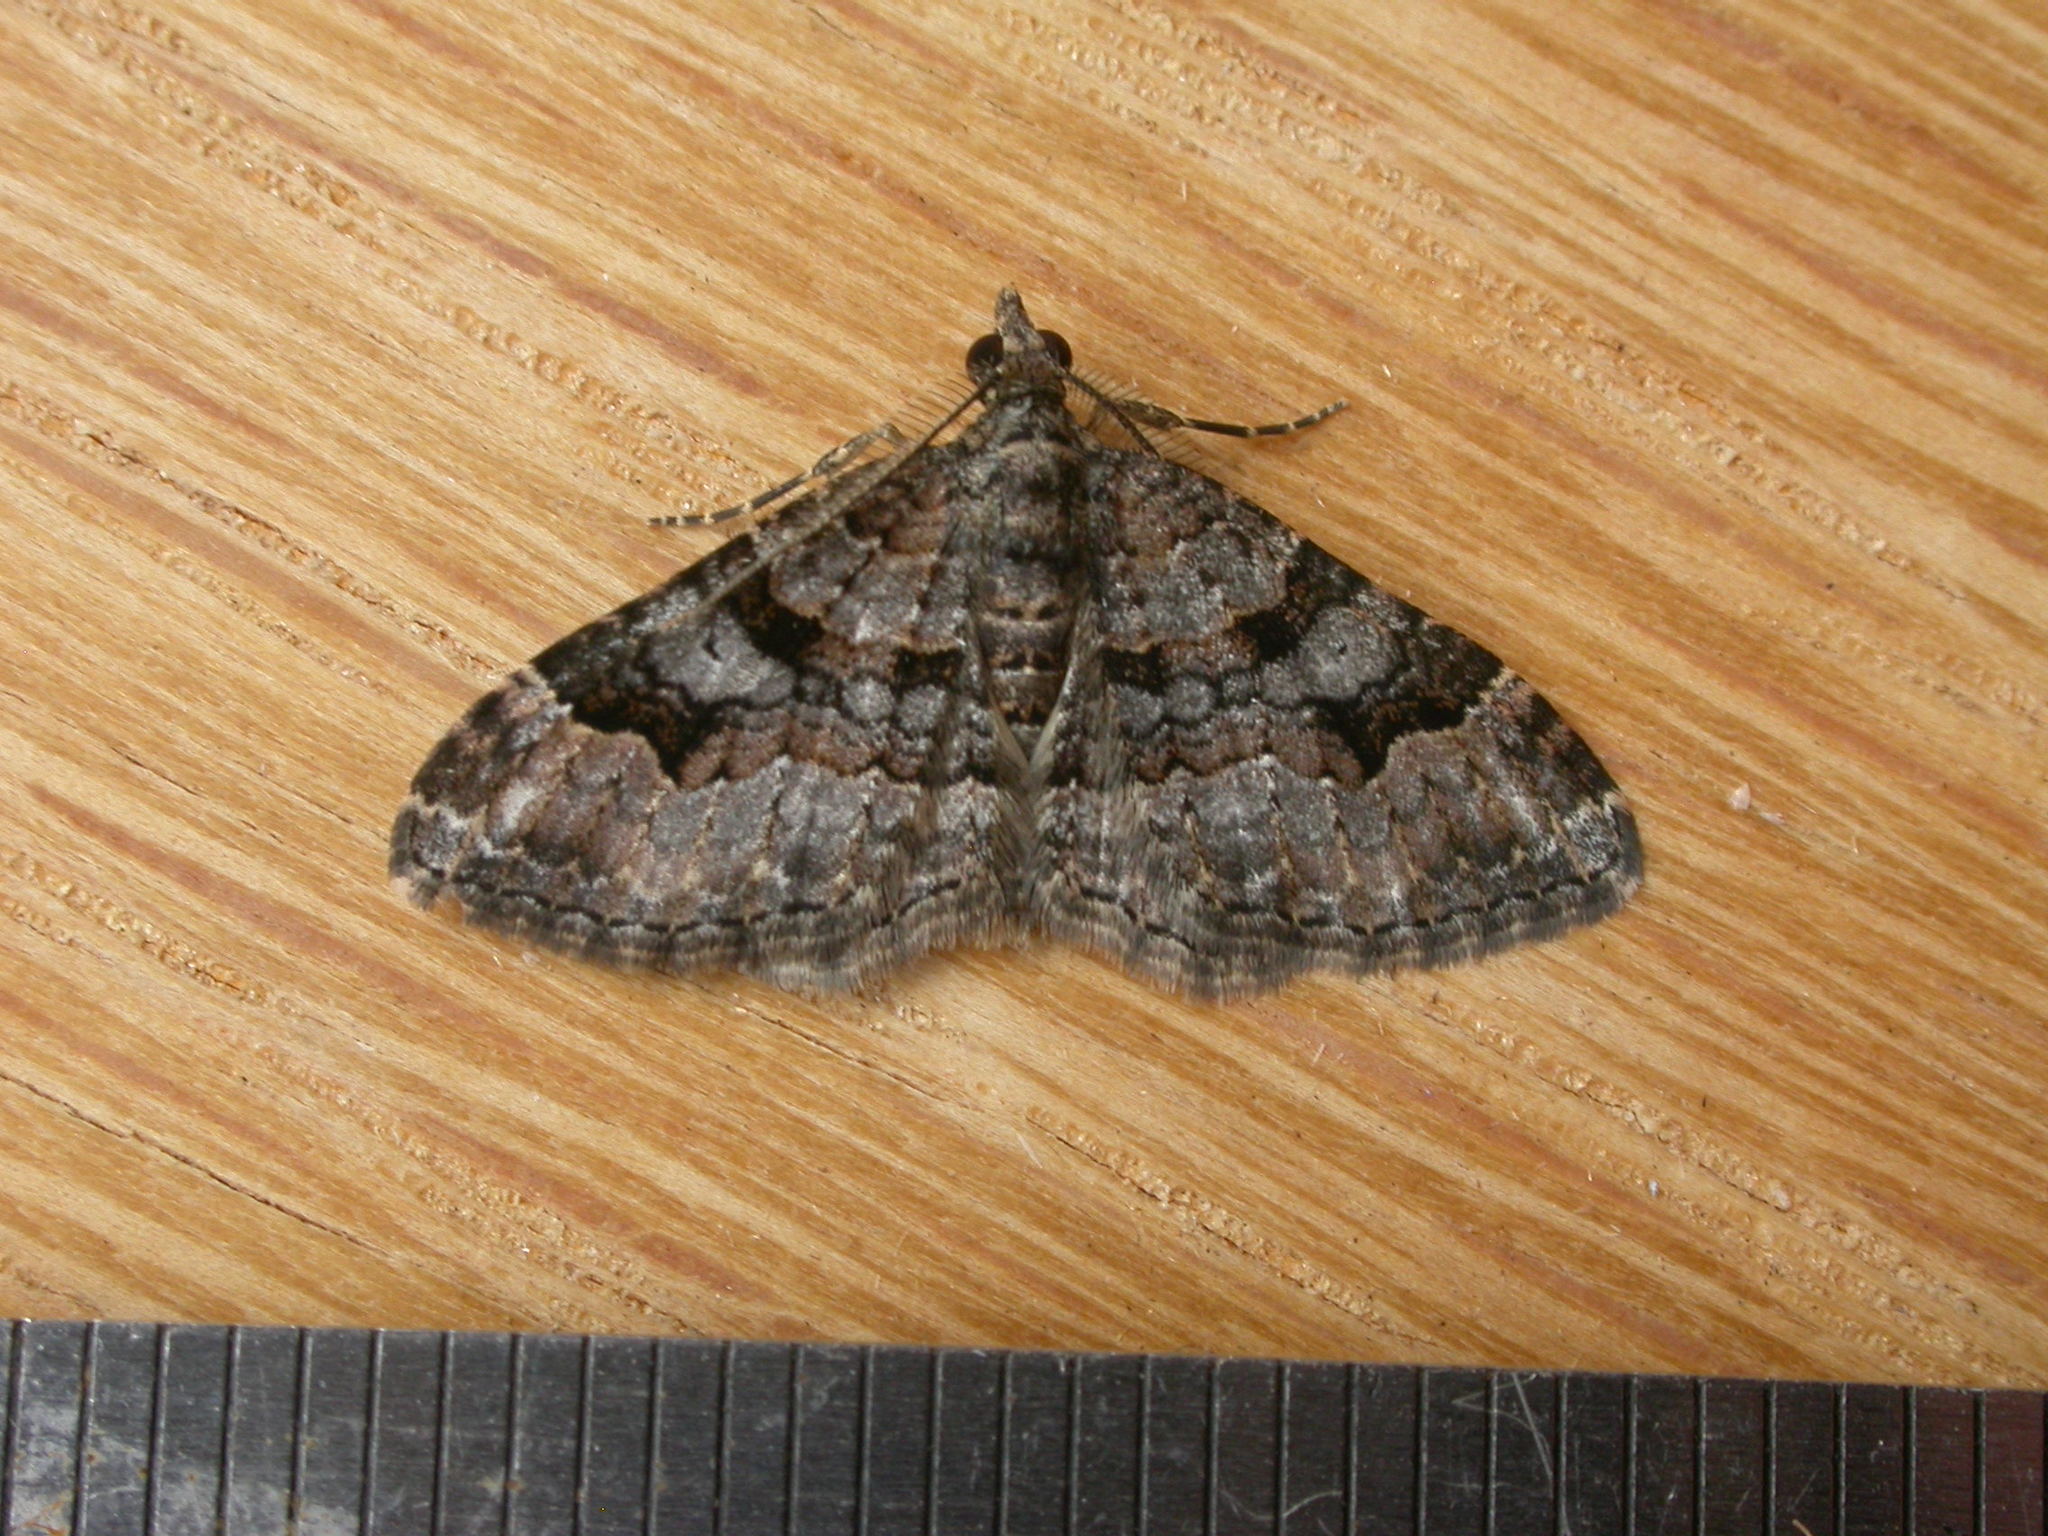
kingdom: Animalia
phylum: Arthropoda
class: Insecta
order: Lepidoptera
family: Geometridae
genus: Epyaxa
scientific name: Epyaxa sodaliata
